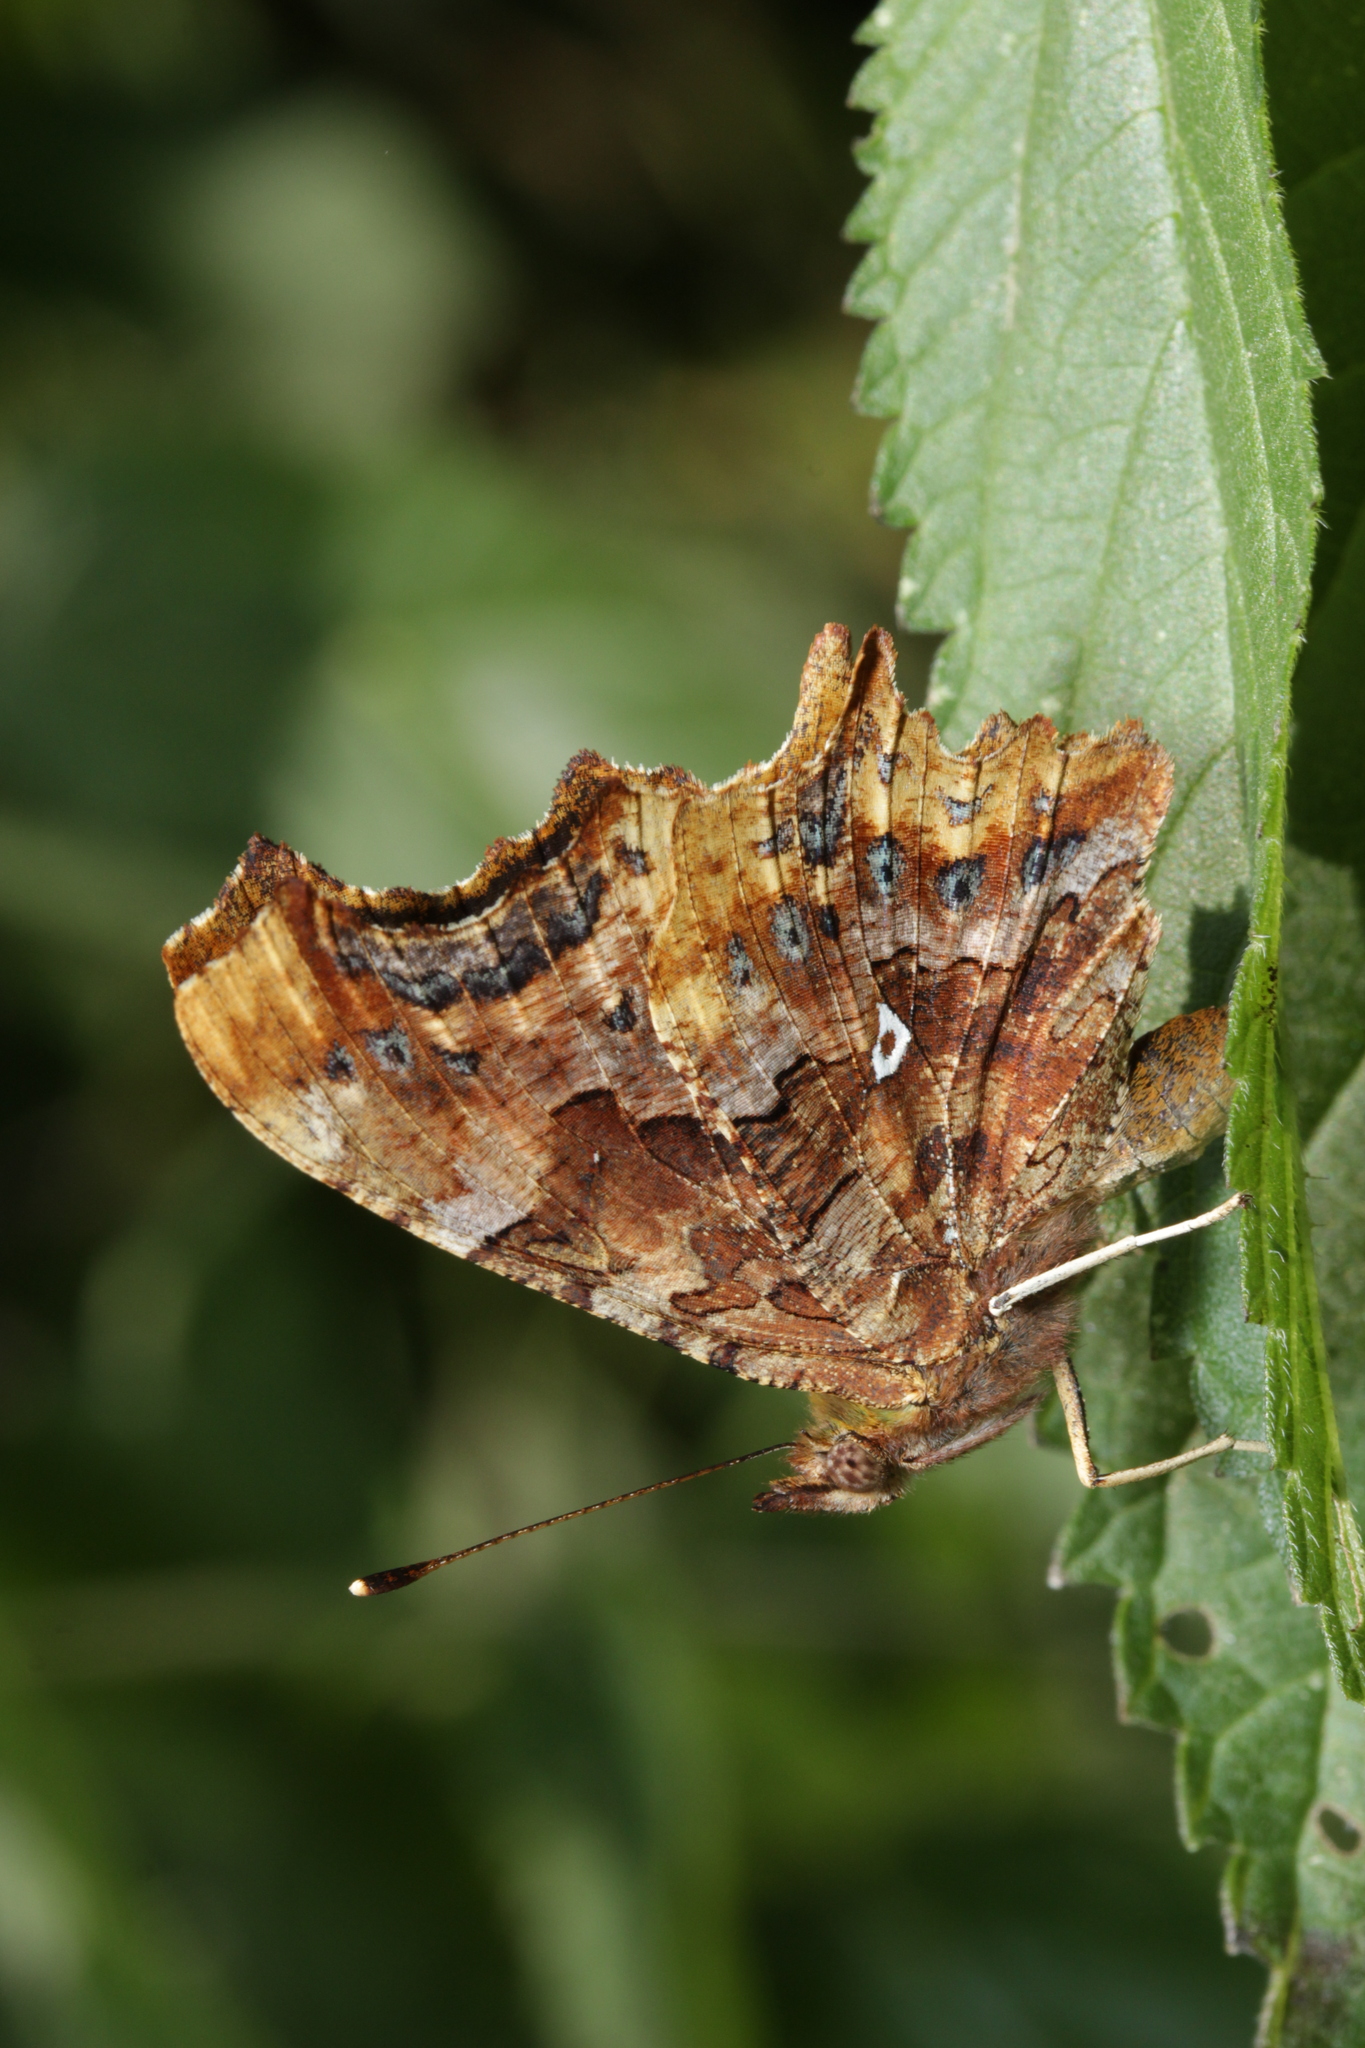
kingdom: Animalia
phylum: Arthropoda
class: Insecta
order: Lepidoptera
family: Nymphalidae
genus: Polygonia
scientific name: Polygonia c-album
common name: Comma
